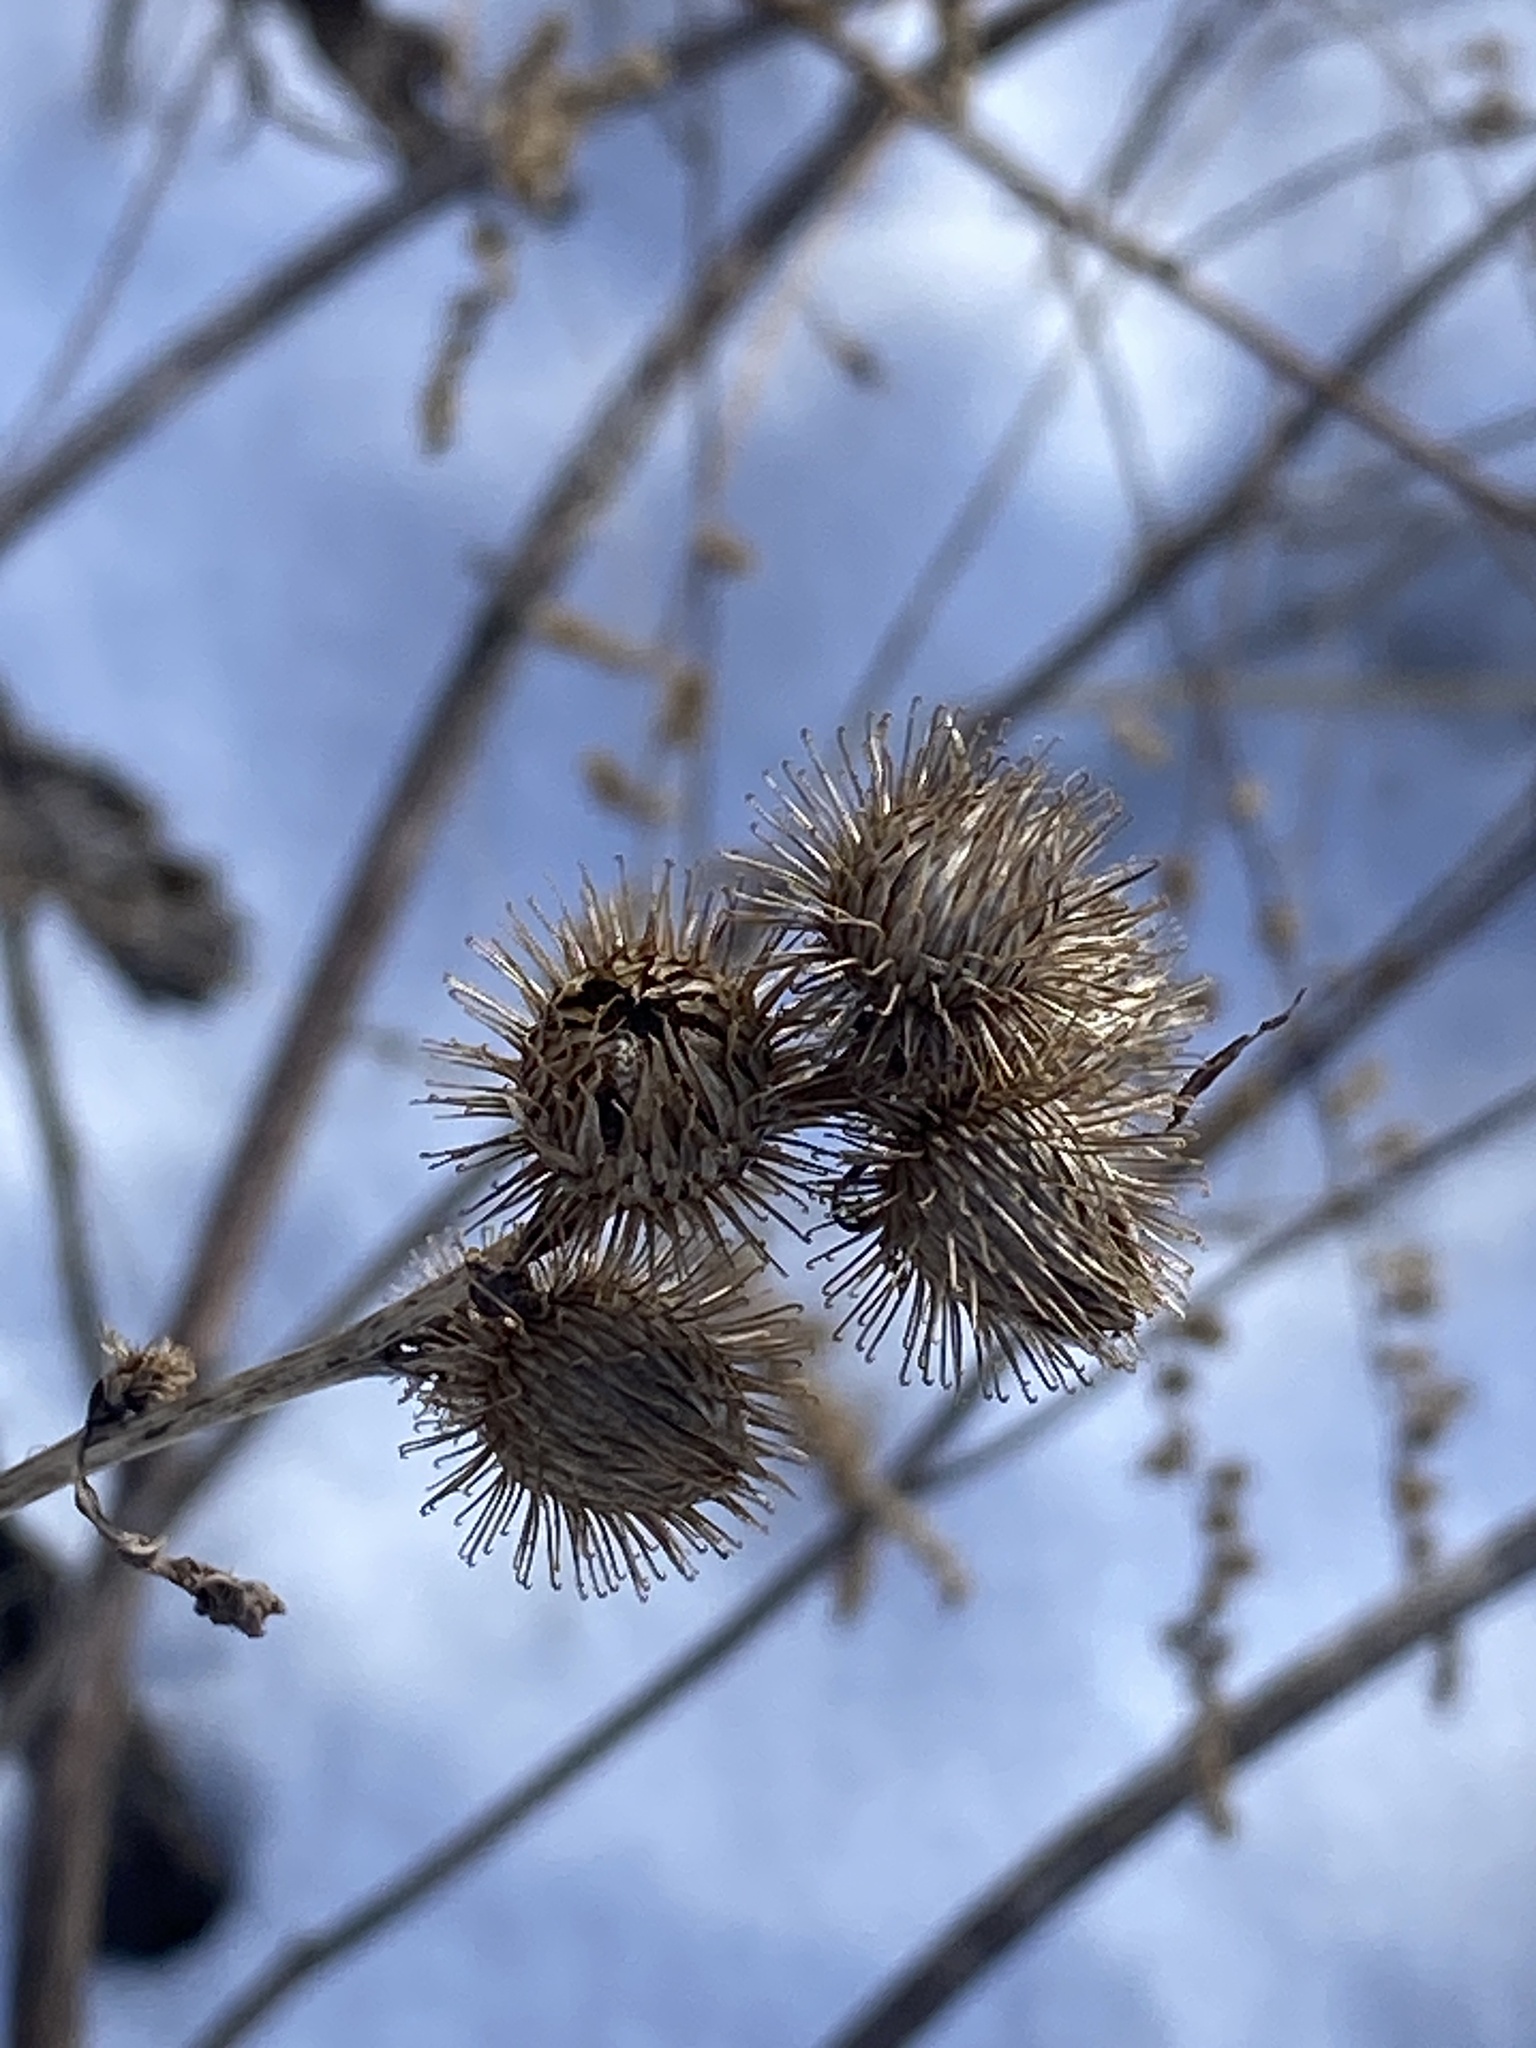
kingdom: Plantae
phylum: Tracheophyta
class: Magnoliopsida
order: Asterales
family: Asteraceae
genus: Arctium
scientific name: Arctium minus
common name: Lesser burdock
